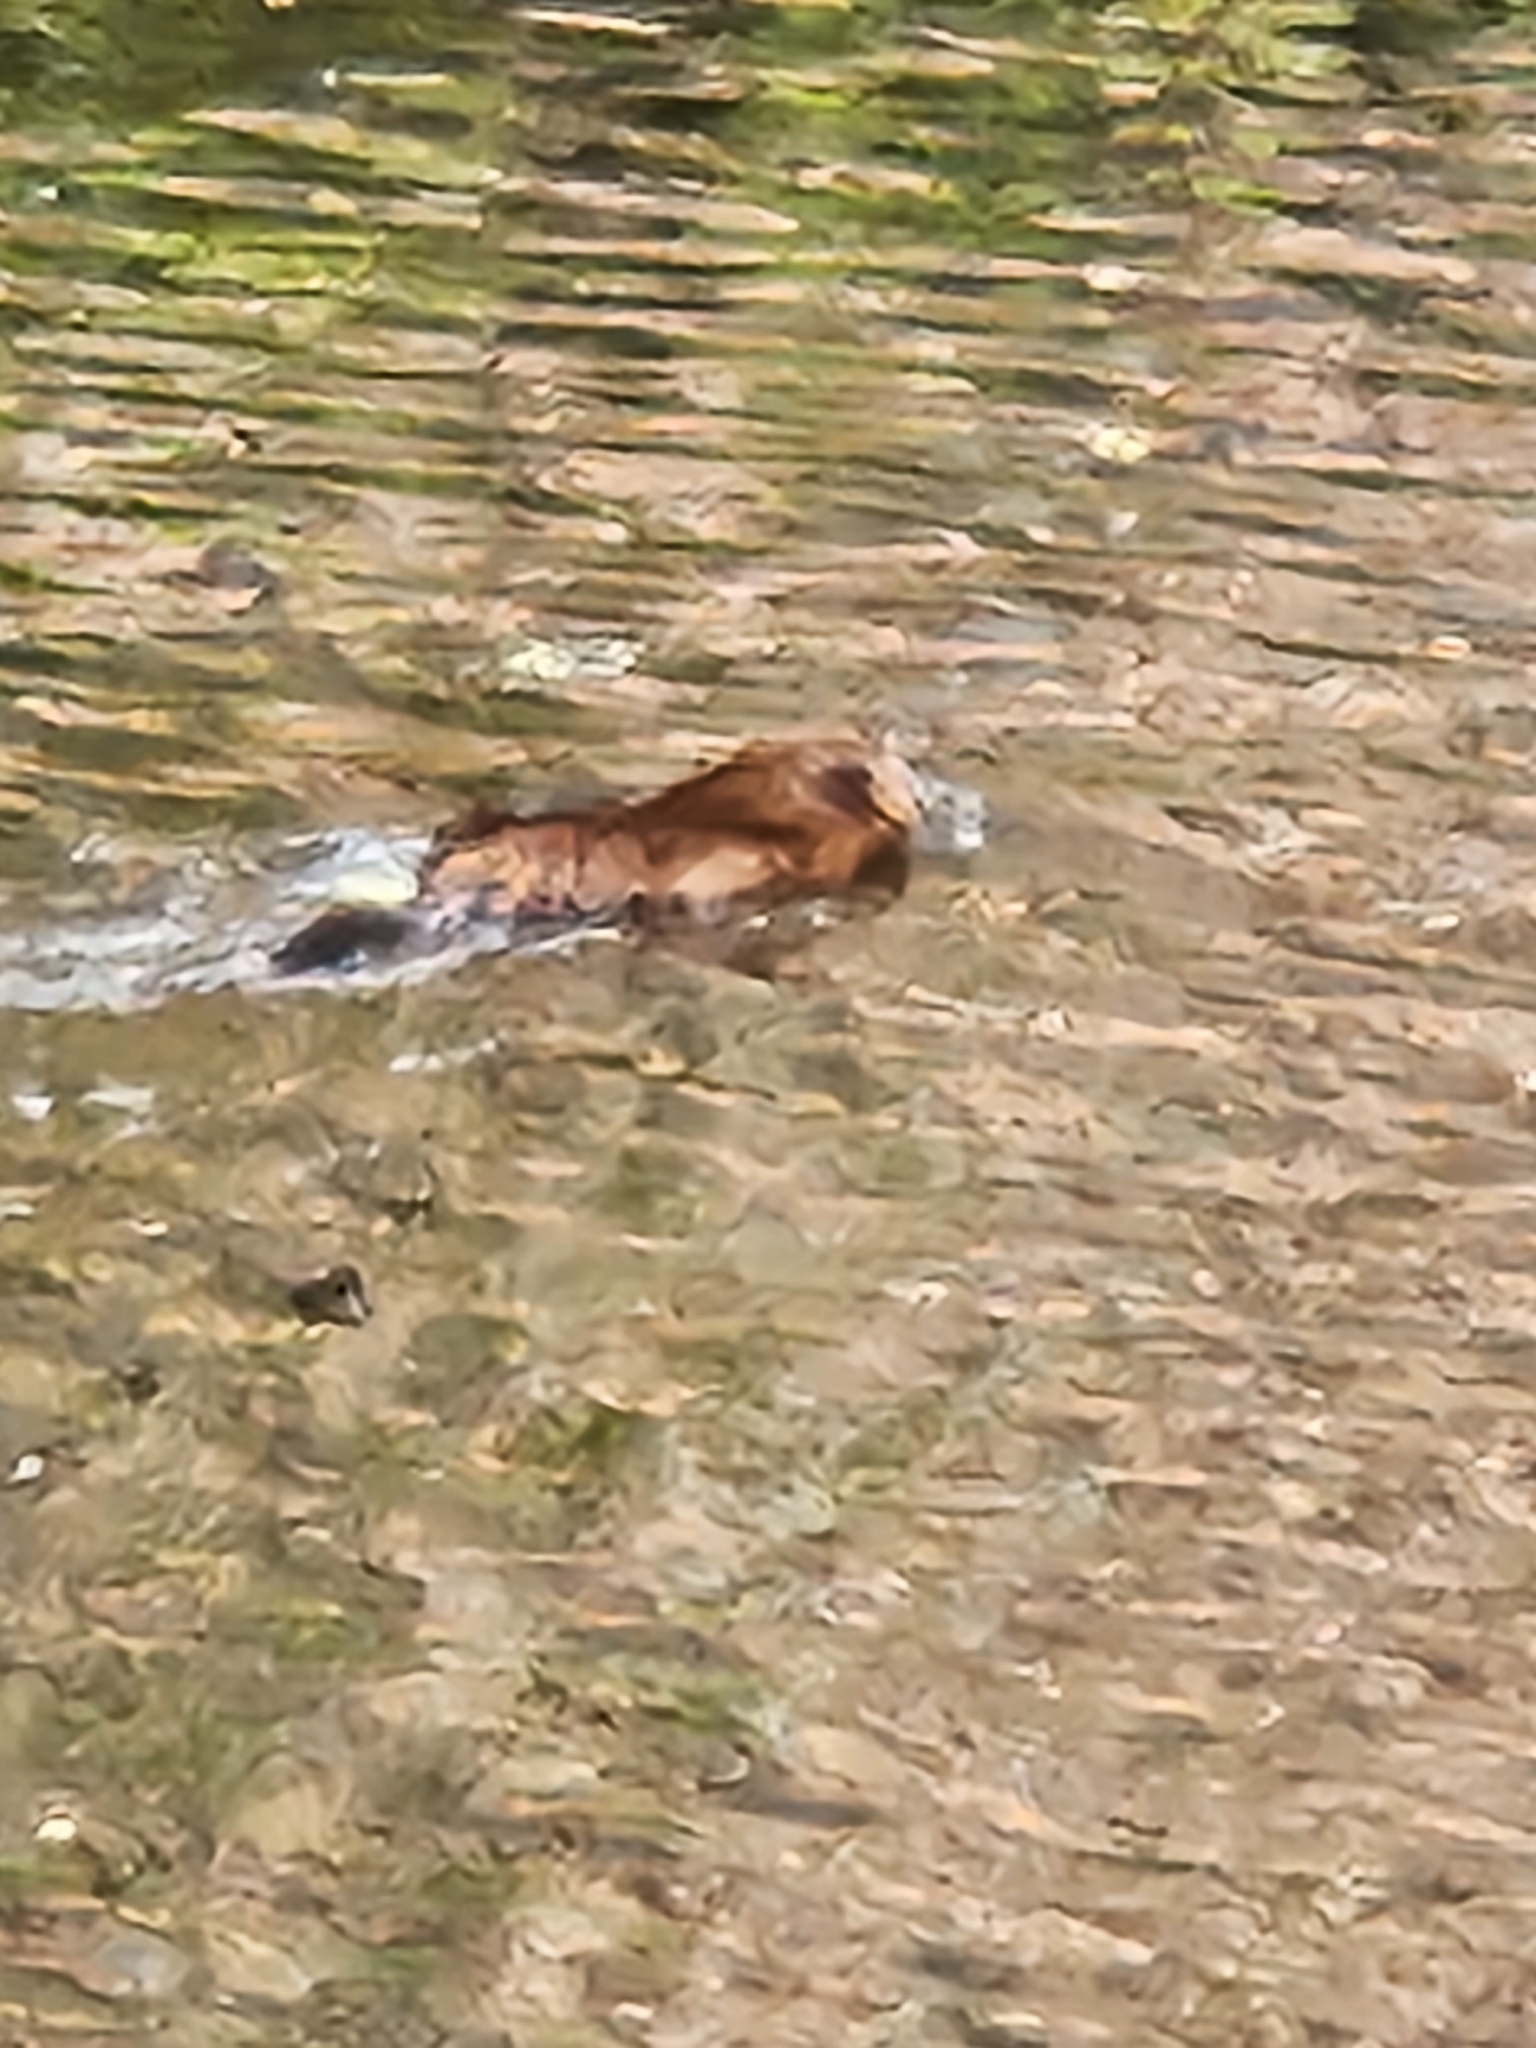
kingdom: Animalia
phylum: Chordata
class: Mammalia
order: Rodentia
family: Cricetidae
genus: Ondatra
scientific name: Ondatra zibethicus
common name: Muskrat
